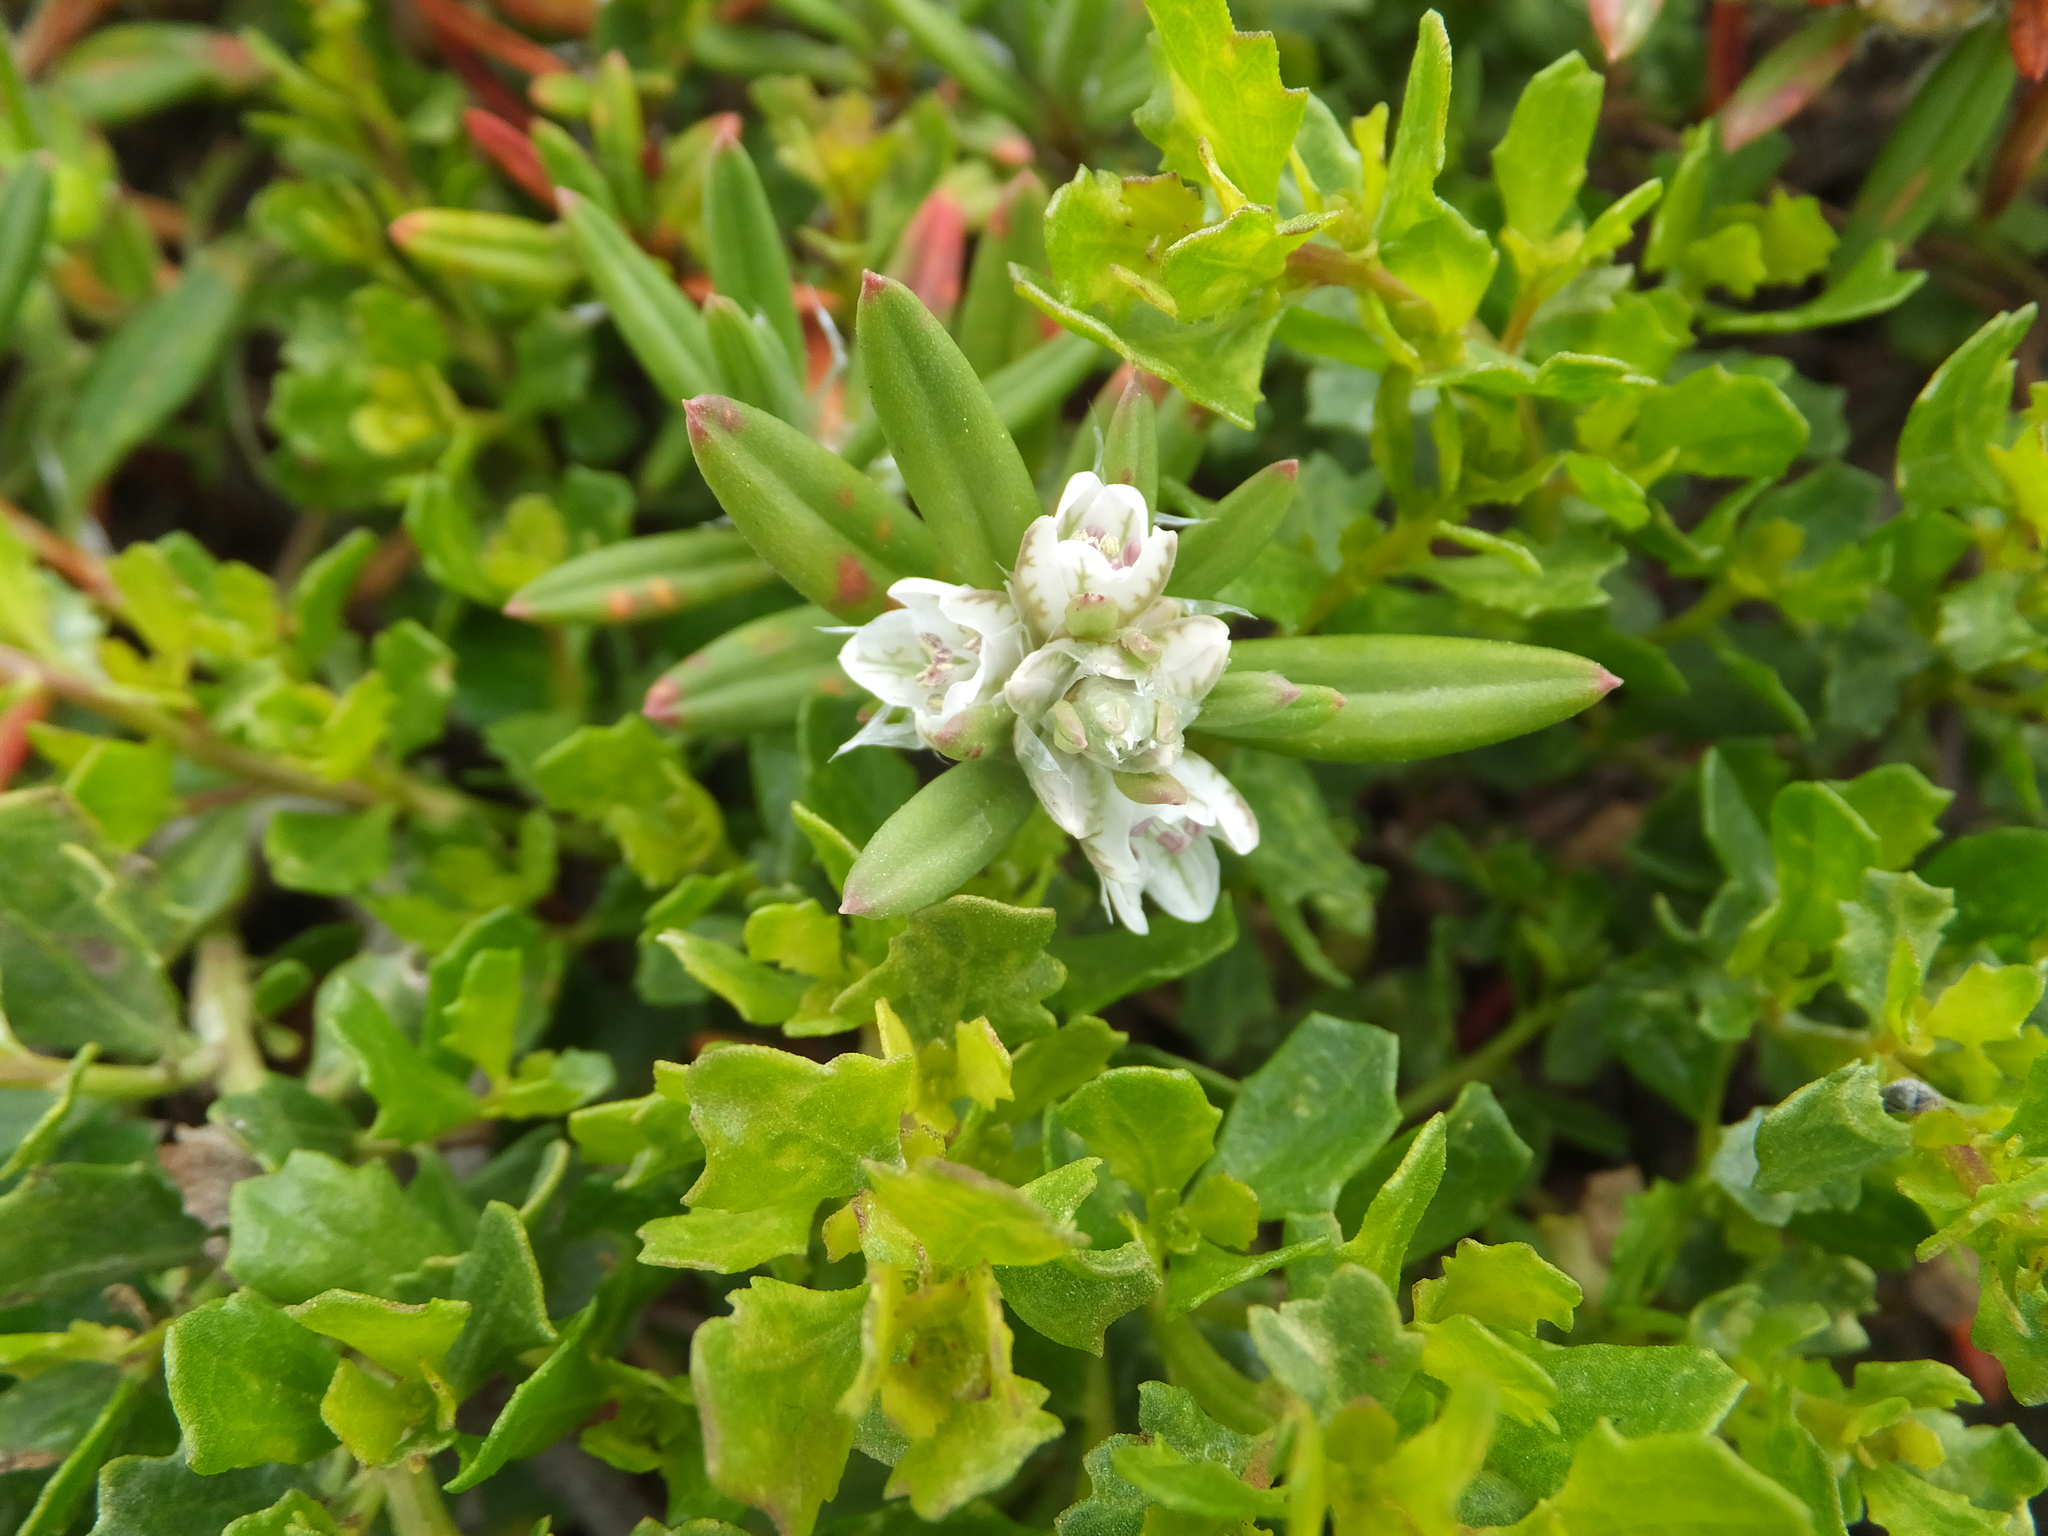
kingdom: Plantae
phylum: Tracheophyta
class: Magnoliopsida
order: Caryophyllales
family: Polygonaceae
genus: Polygonum
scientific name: Polygonum paronychia
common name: Dune knotweed
